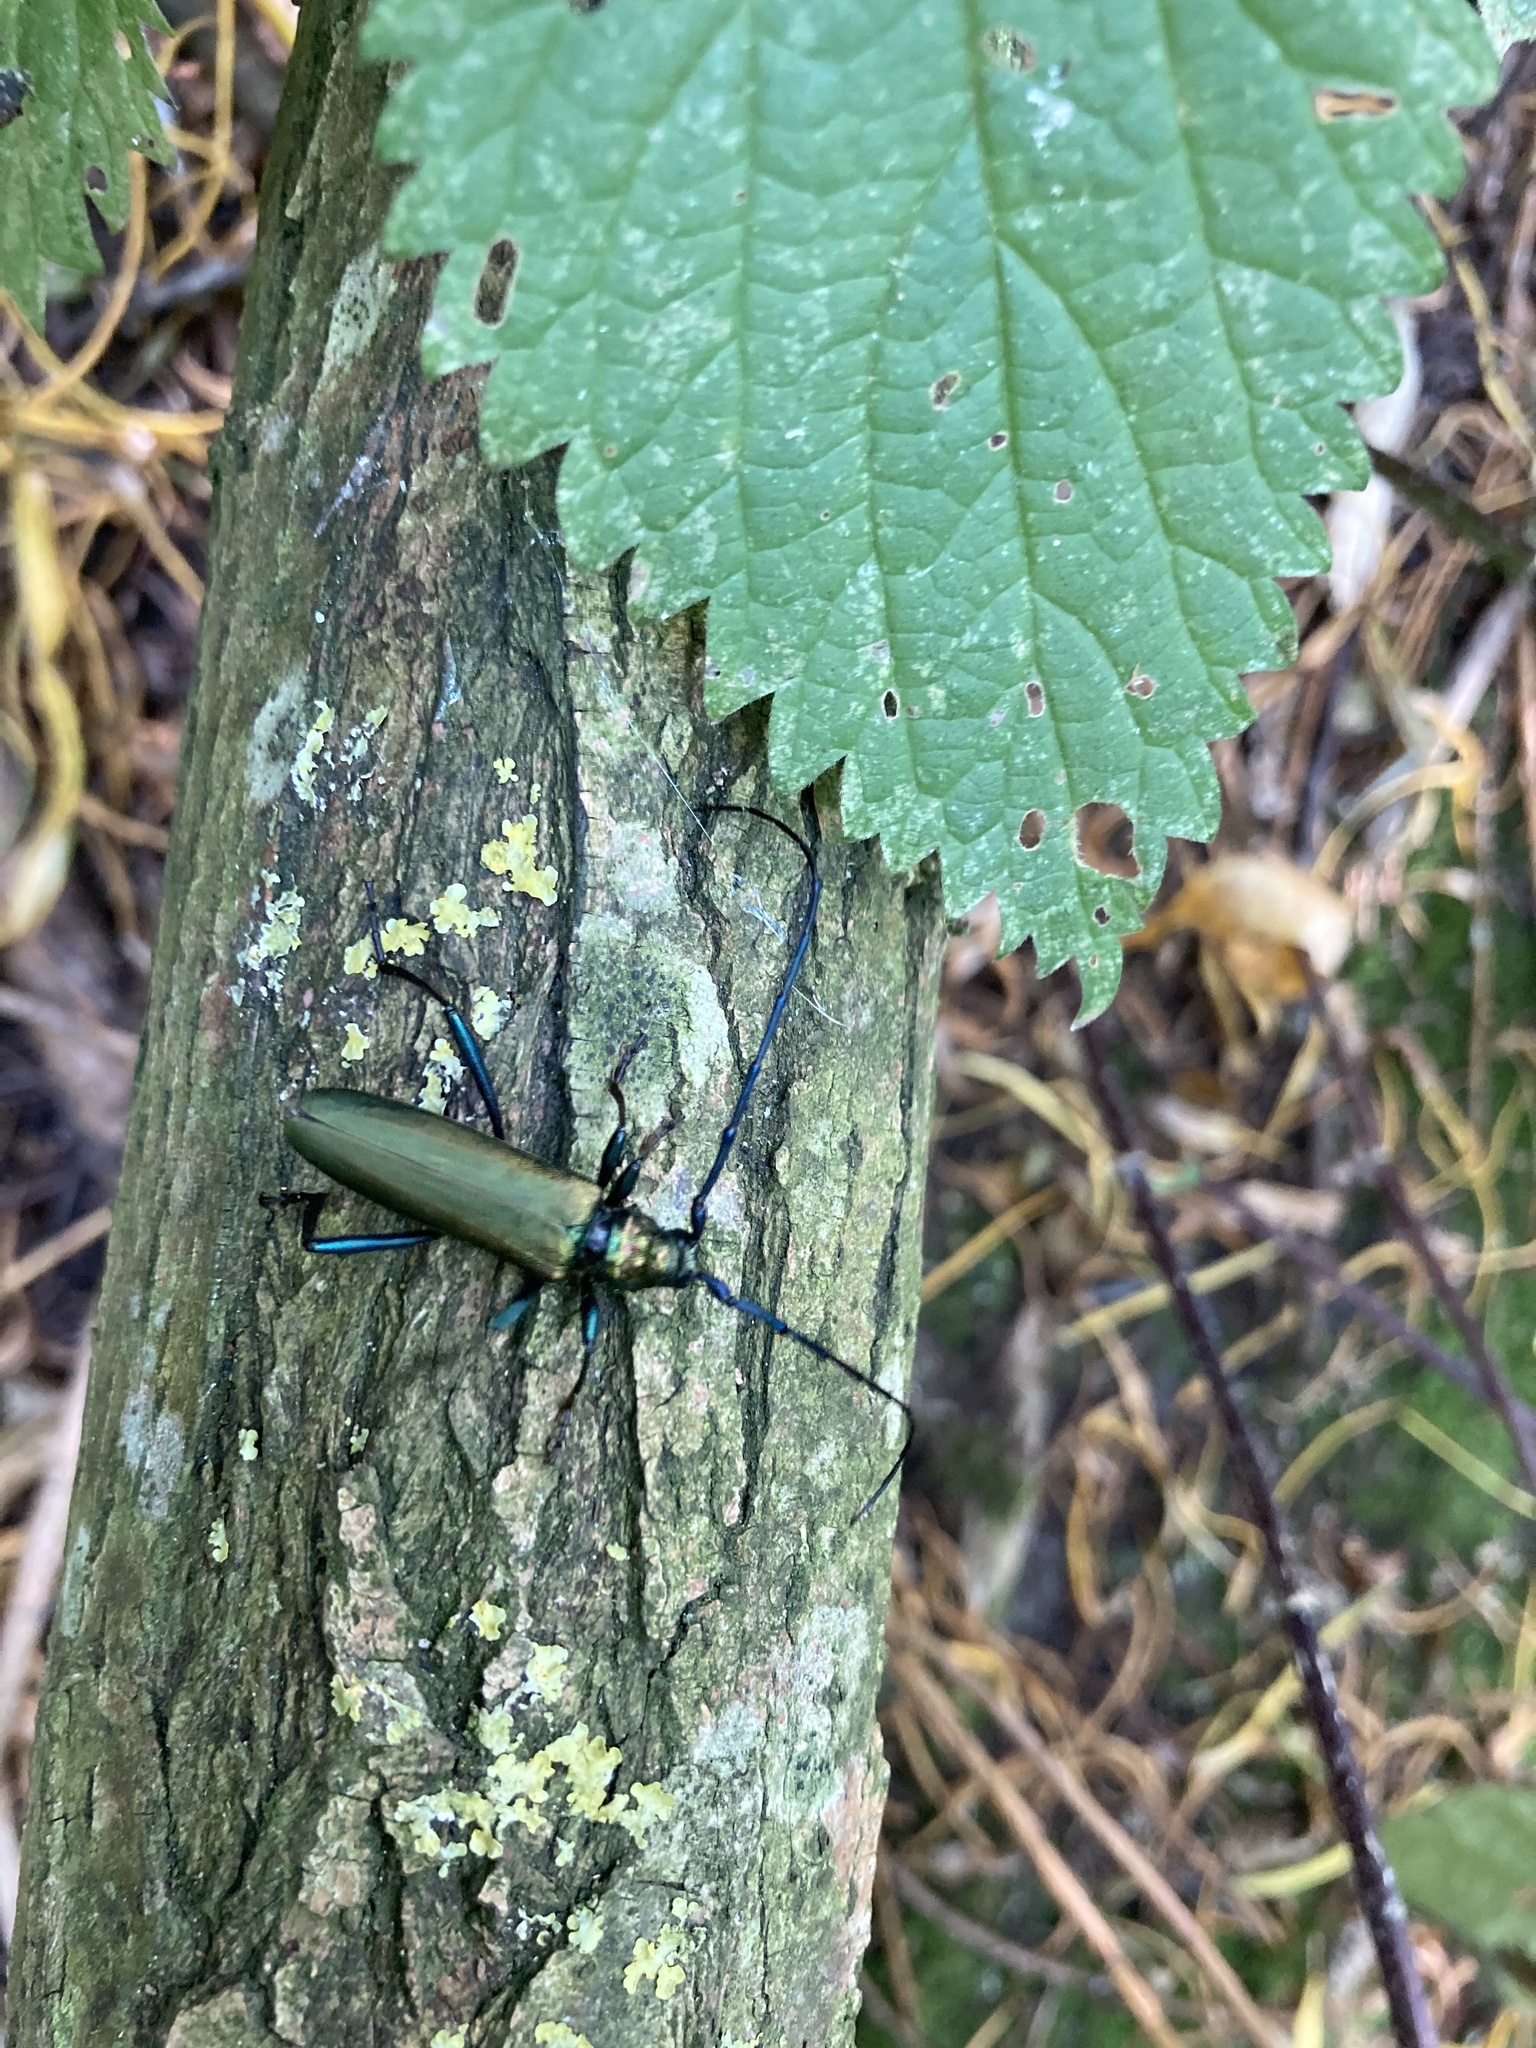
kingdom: Animalia
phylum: Arthropoda
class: Insecta
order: Coleoptera
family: Cerambycidae
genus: Aromia
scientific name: Aromia moschata
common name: Musk beetle
